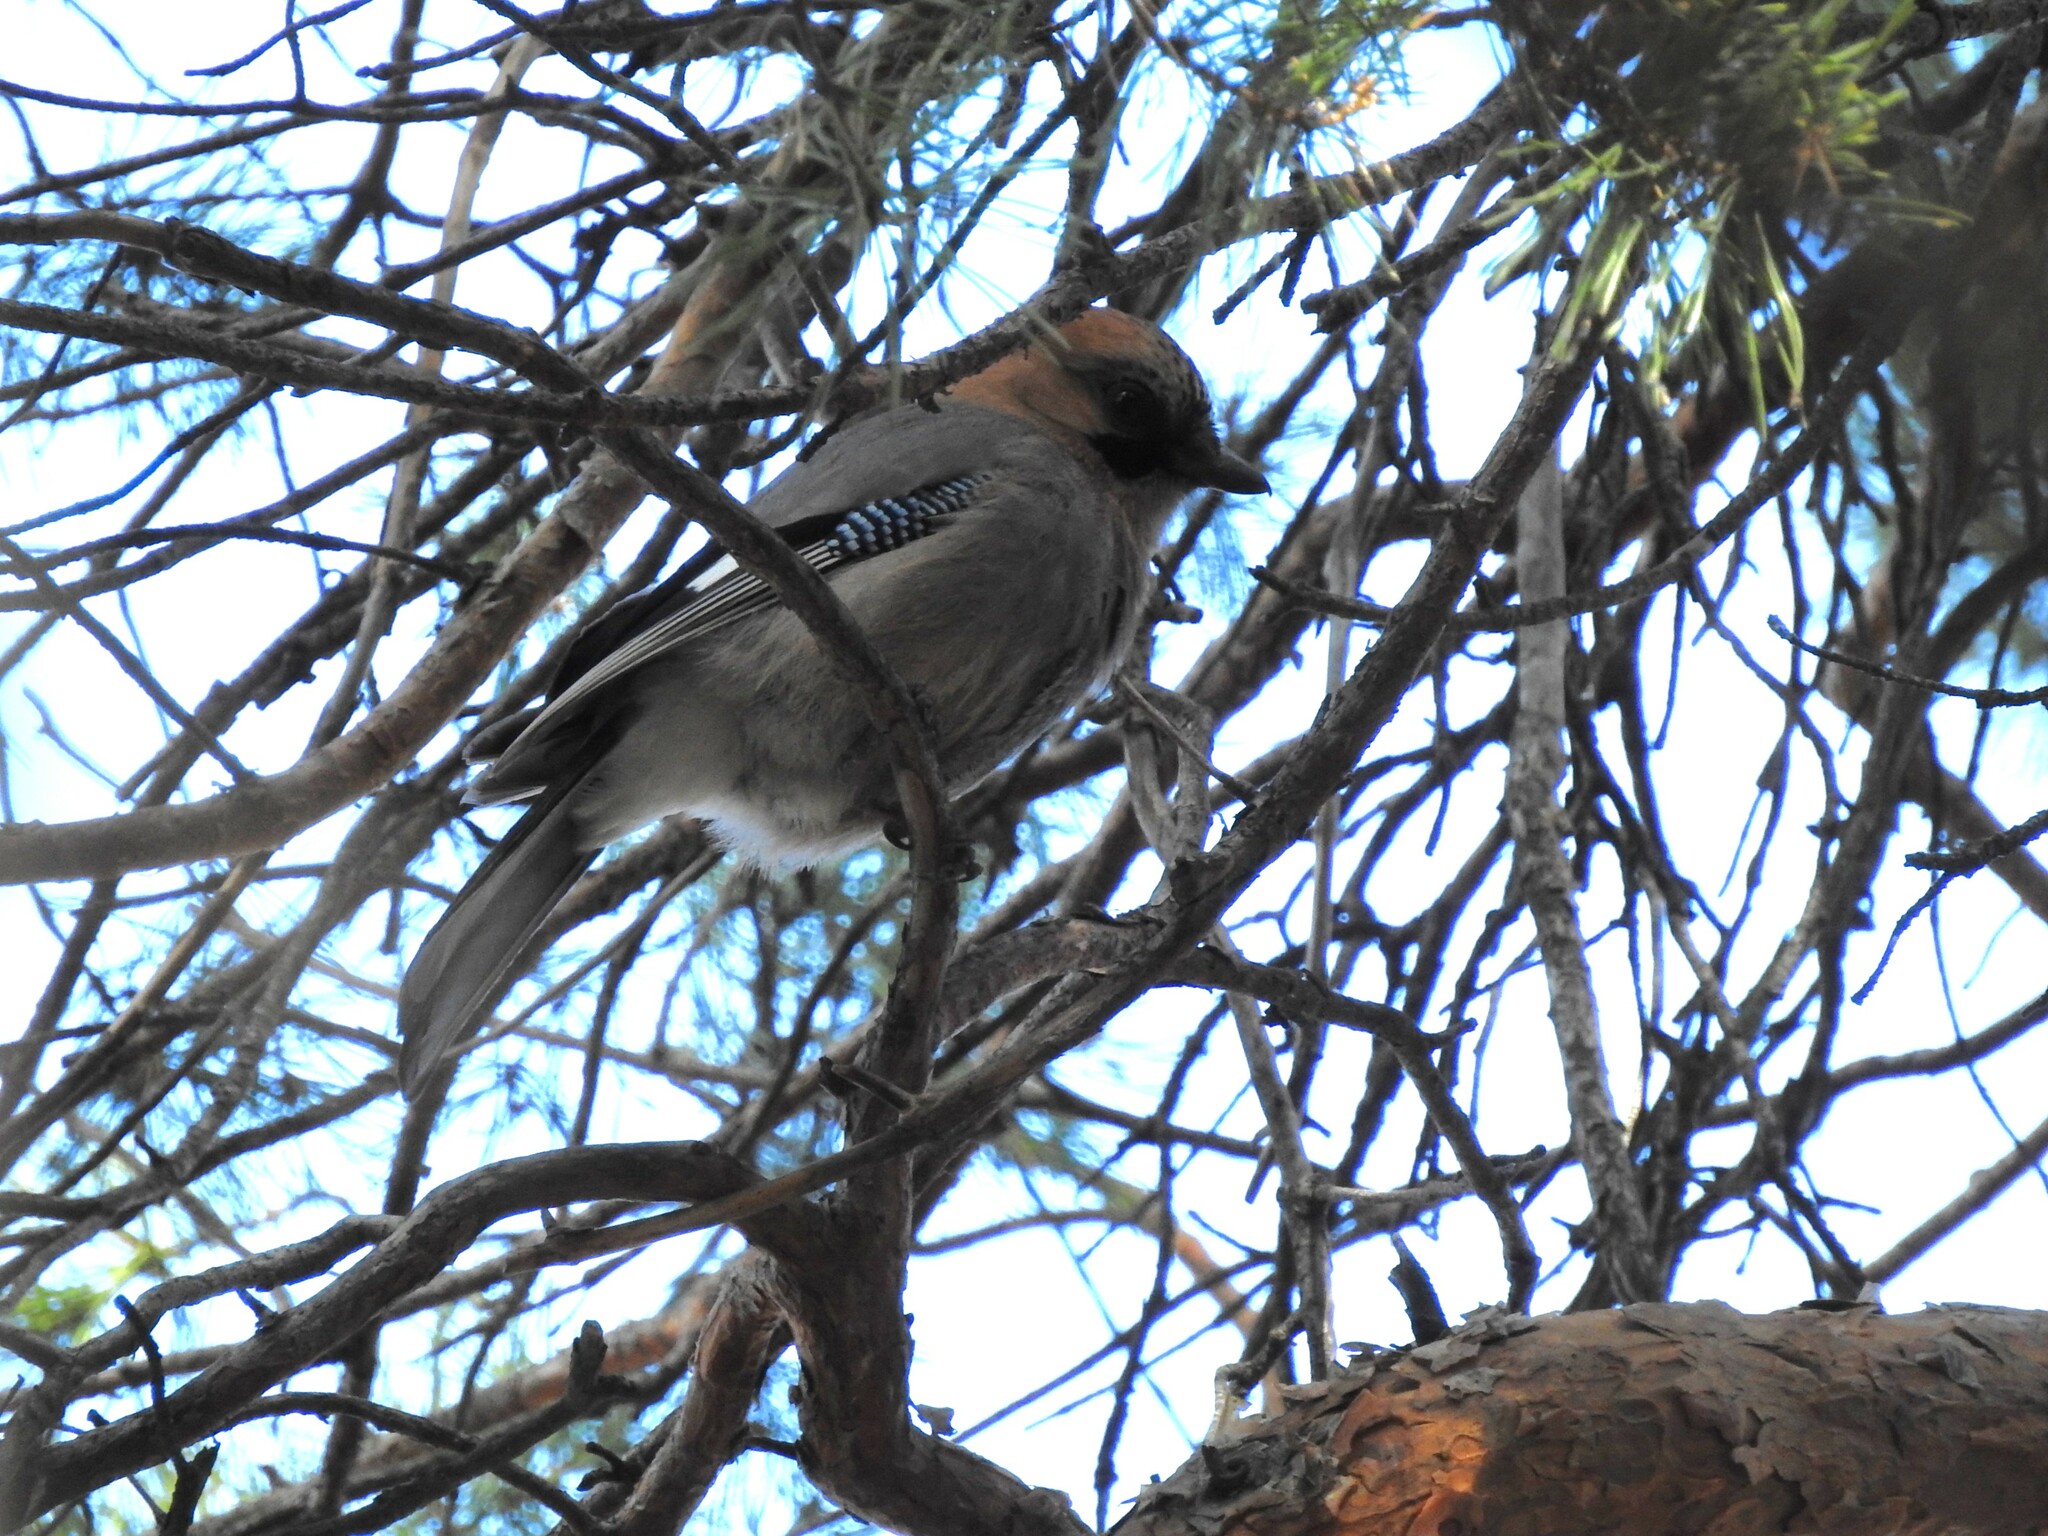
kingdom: Animalia
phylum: Chordata
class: Aves
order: Passeriformes
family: Corvidae
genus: Garrulus
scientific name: Garrulus glandarius
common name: Eurasian jay
